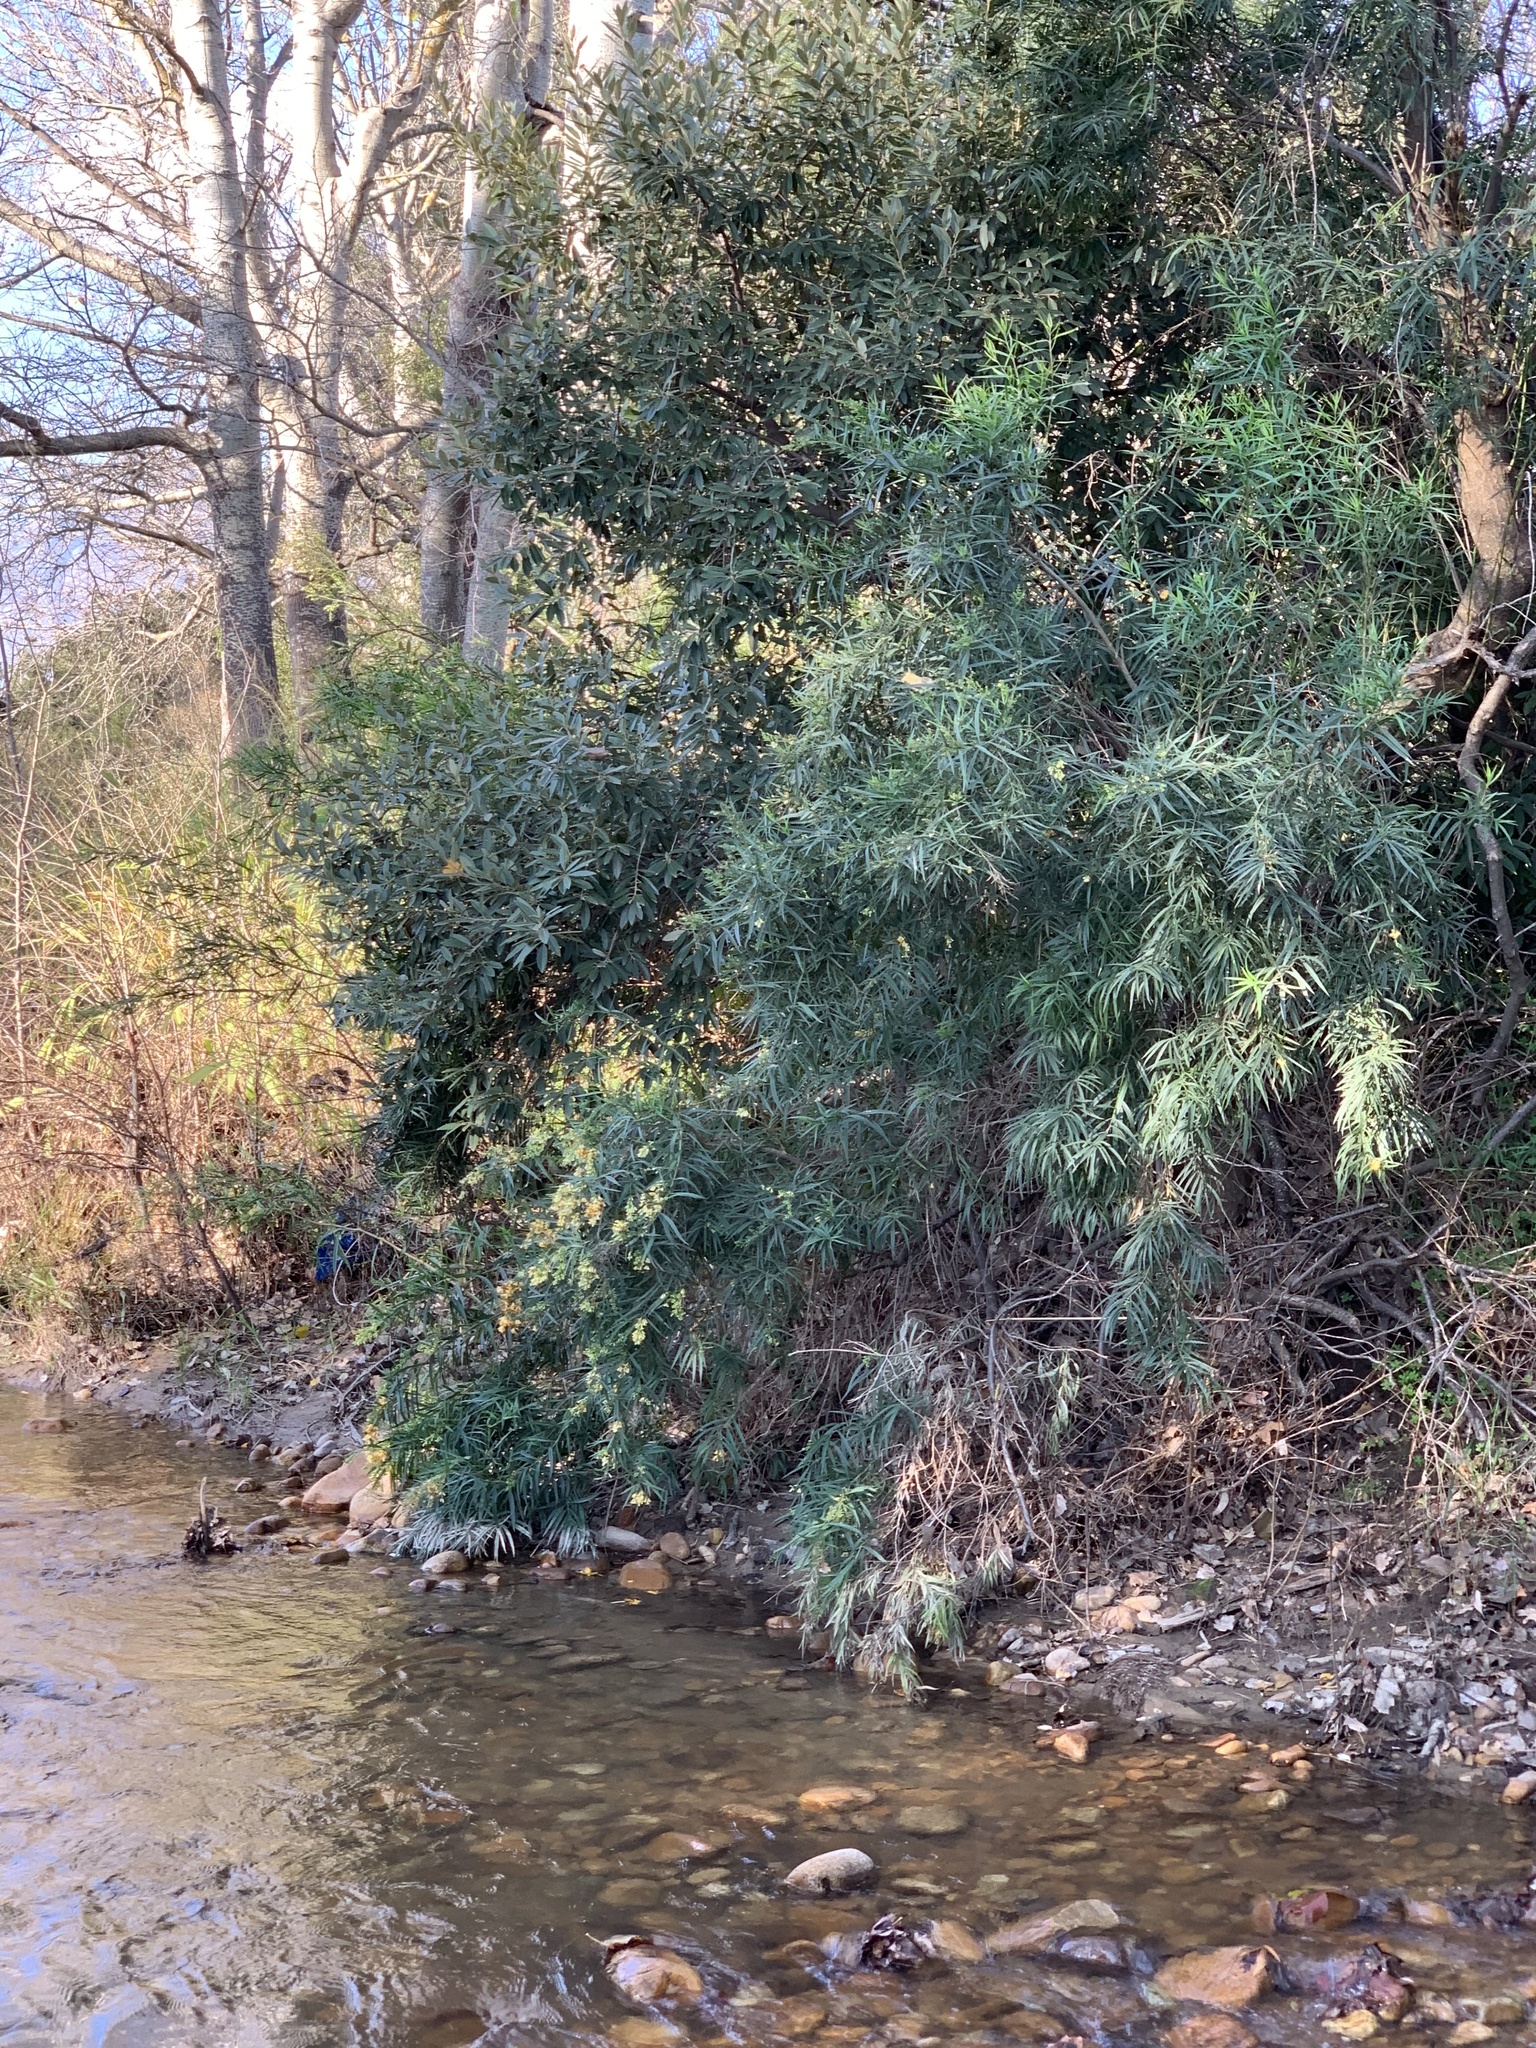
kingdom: Plantae
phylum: Tracheophyta
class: Magnoliopsida
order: Lamiales
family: Scrophulariaceae
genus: Freylinia
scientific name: Freylinia lanceolata
